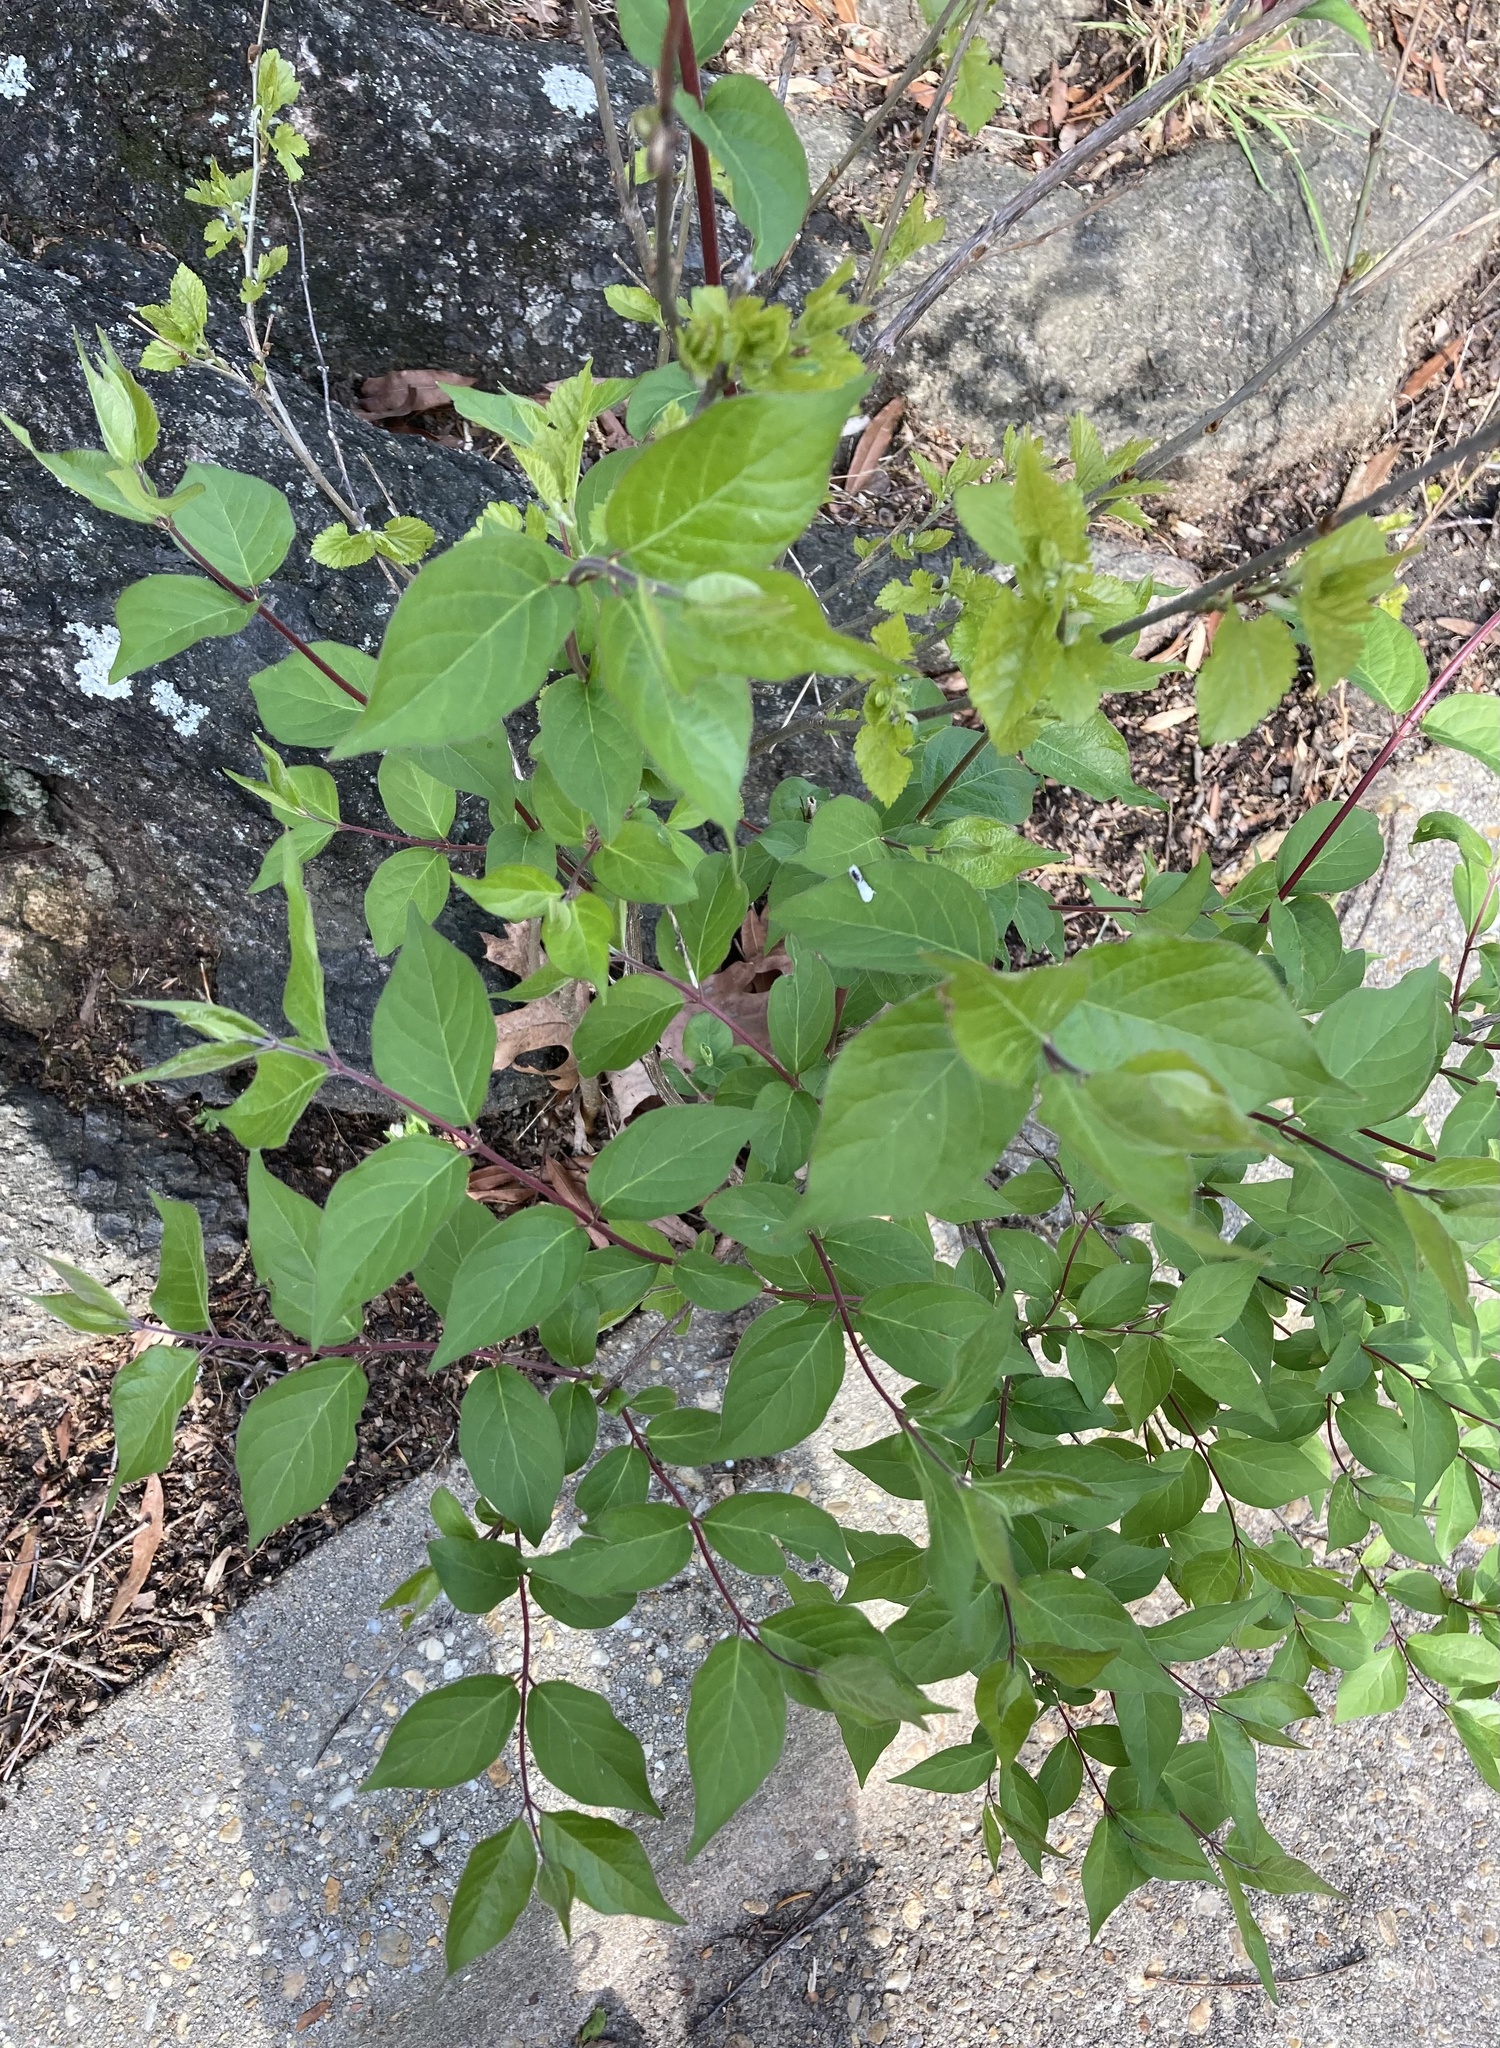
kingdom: Plantae
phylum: Tracheophyta
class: Magnoliopsida
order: Dipsacales
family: Caprifoliaceae
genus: Lonicera
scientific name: Lonicera maackii
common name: Amur honeysuckle
